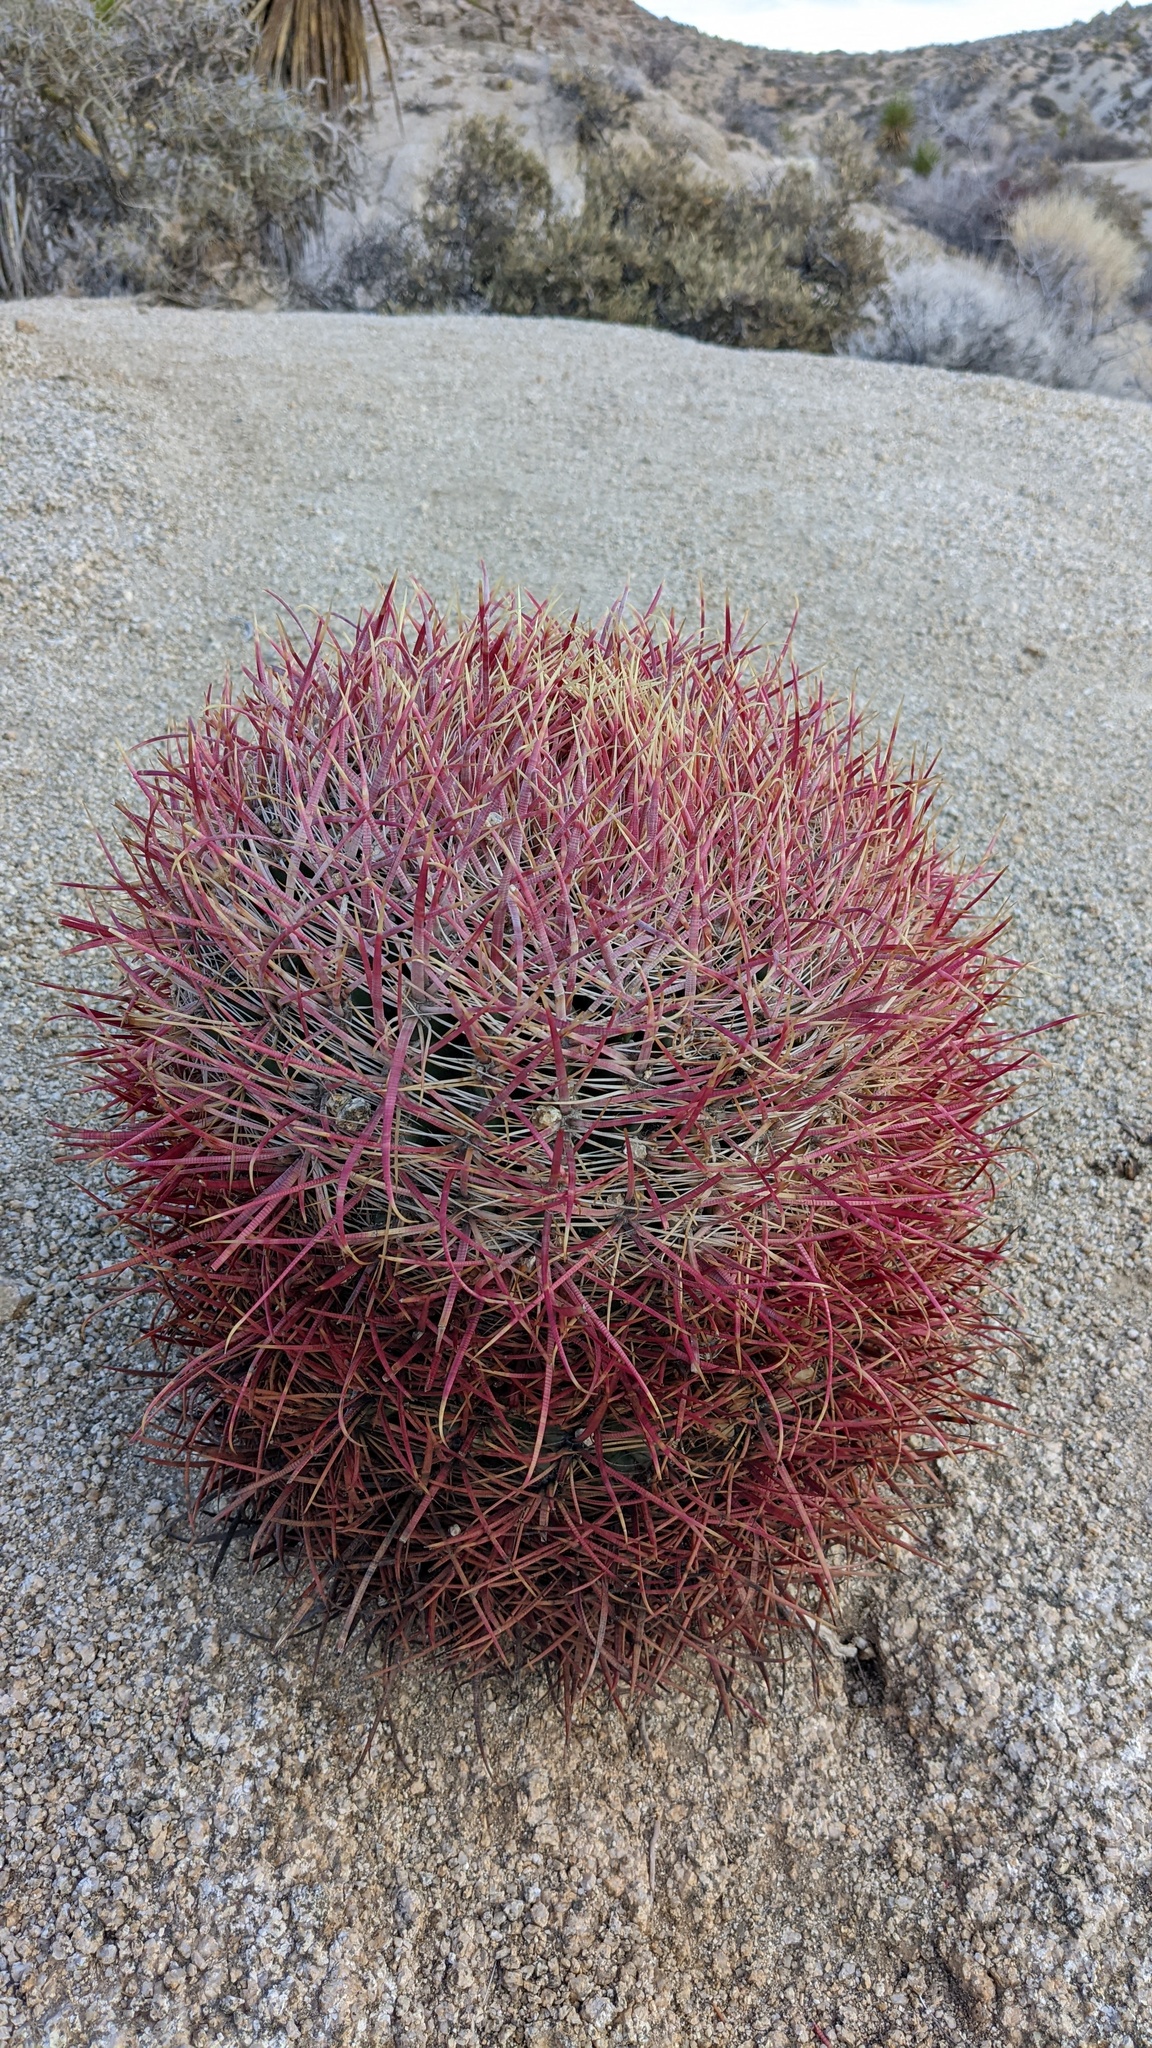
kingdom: Plantae
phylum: Tracheophyta
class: Magnoliopsida
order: Caryophyllales
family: Cactaceae
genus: Ferocactus
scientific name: Ferocactus cylindraceus
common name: California barrel cactus
